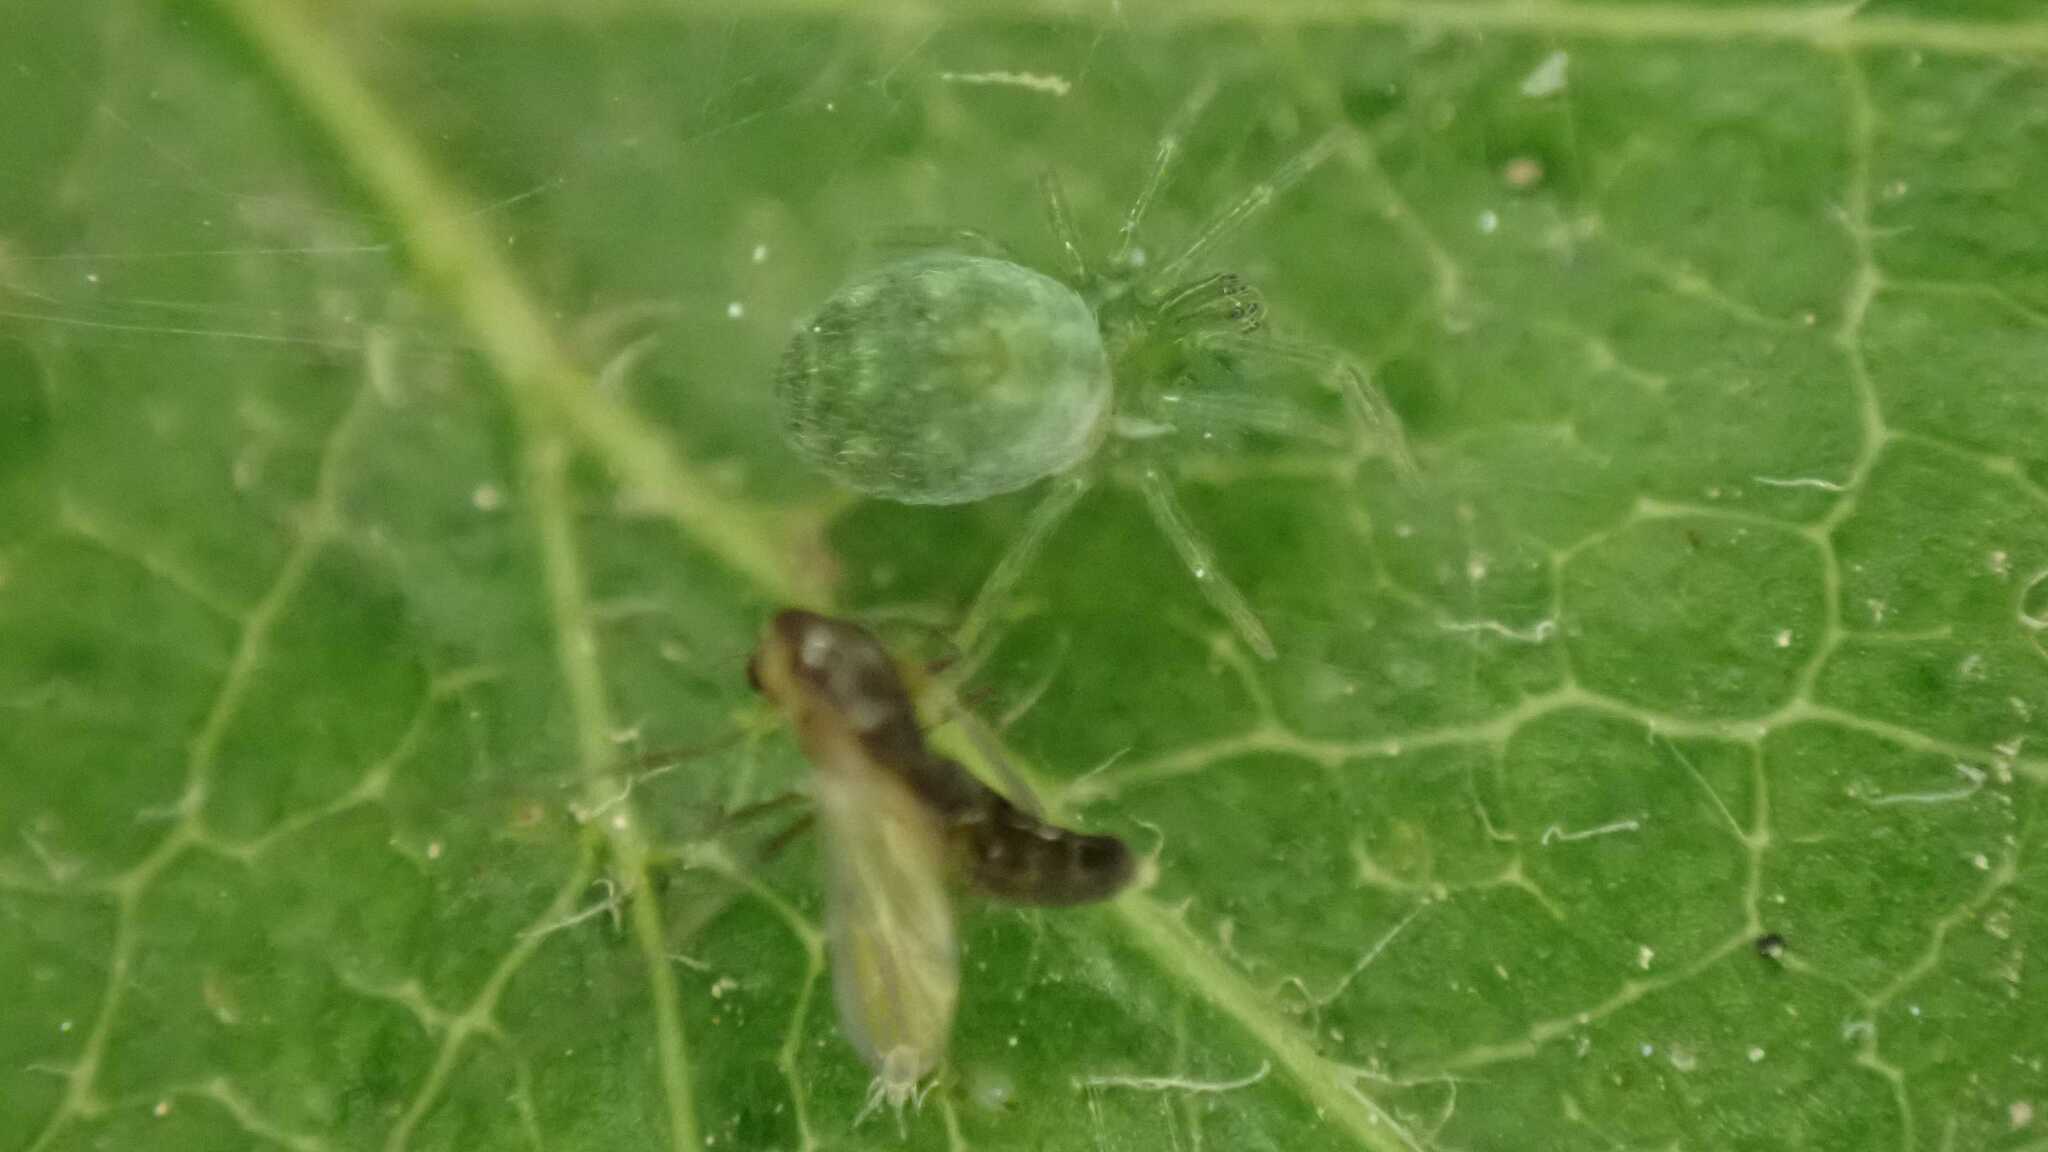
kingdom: Animalia
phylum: Arthropoda
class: Arachnida
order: Araneae
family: Dictynidae
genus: Nigma
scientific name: Nigma walckenaeri
